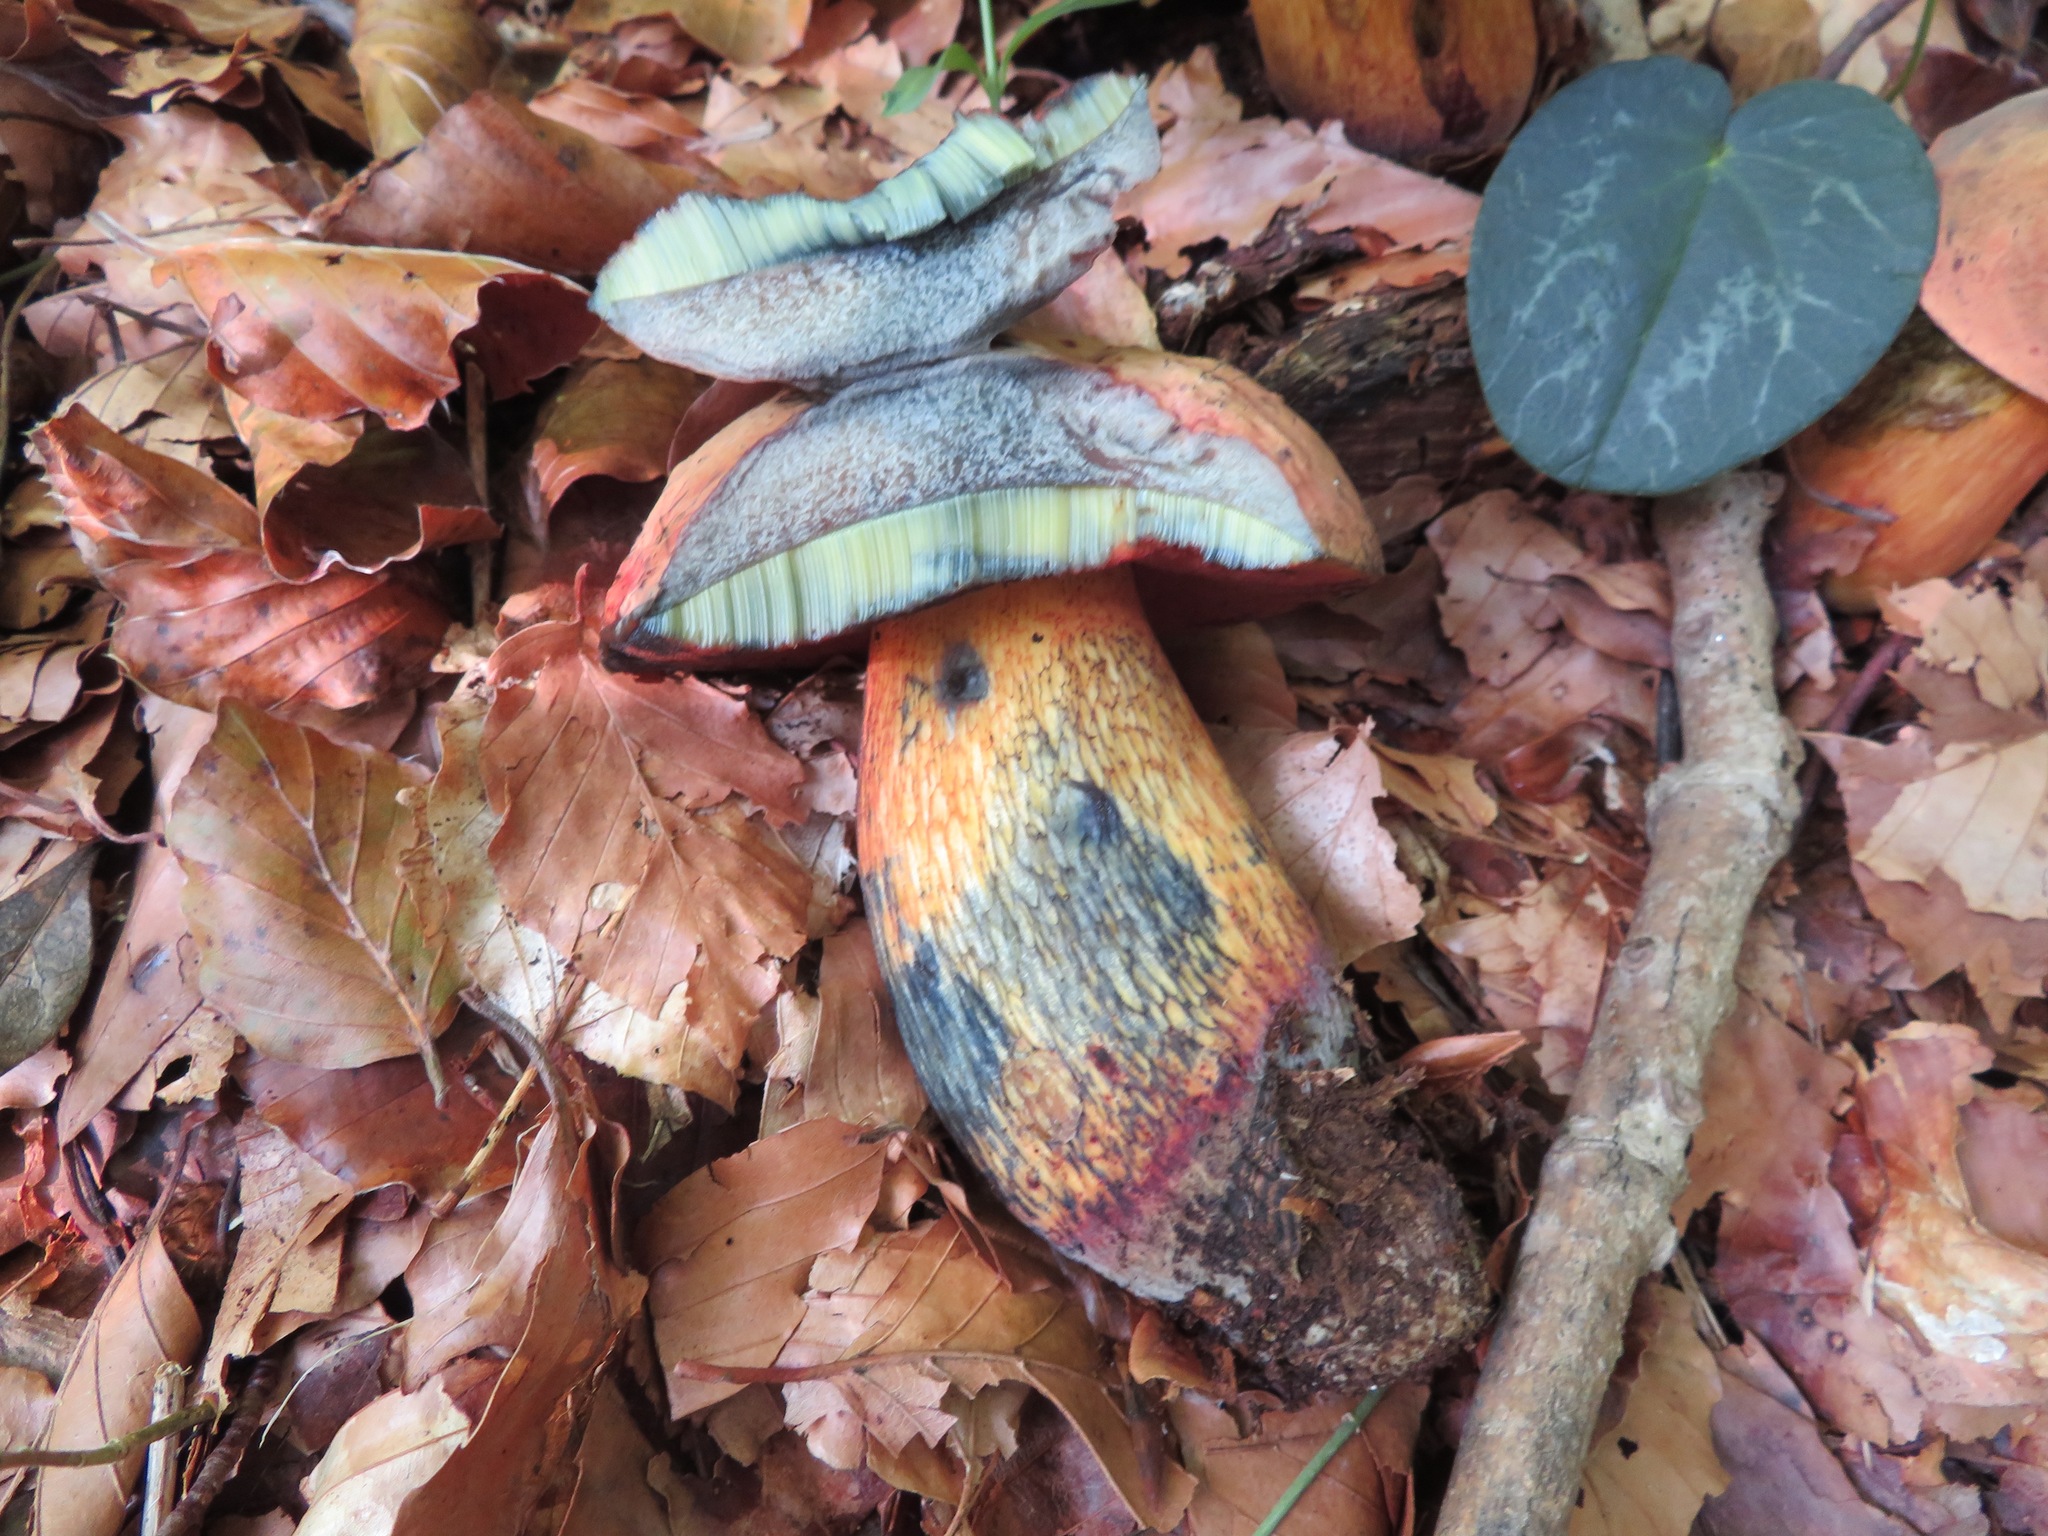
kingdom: Fungi
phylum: Basidiomycota
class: Agaricomycetes
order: Boletales
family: Boletaceae
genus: Suillellus
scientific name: Suillellus luridus
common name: Lurid bolete
